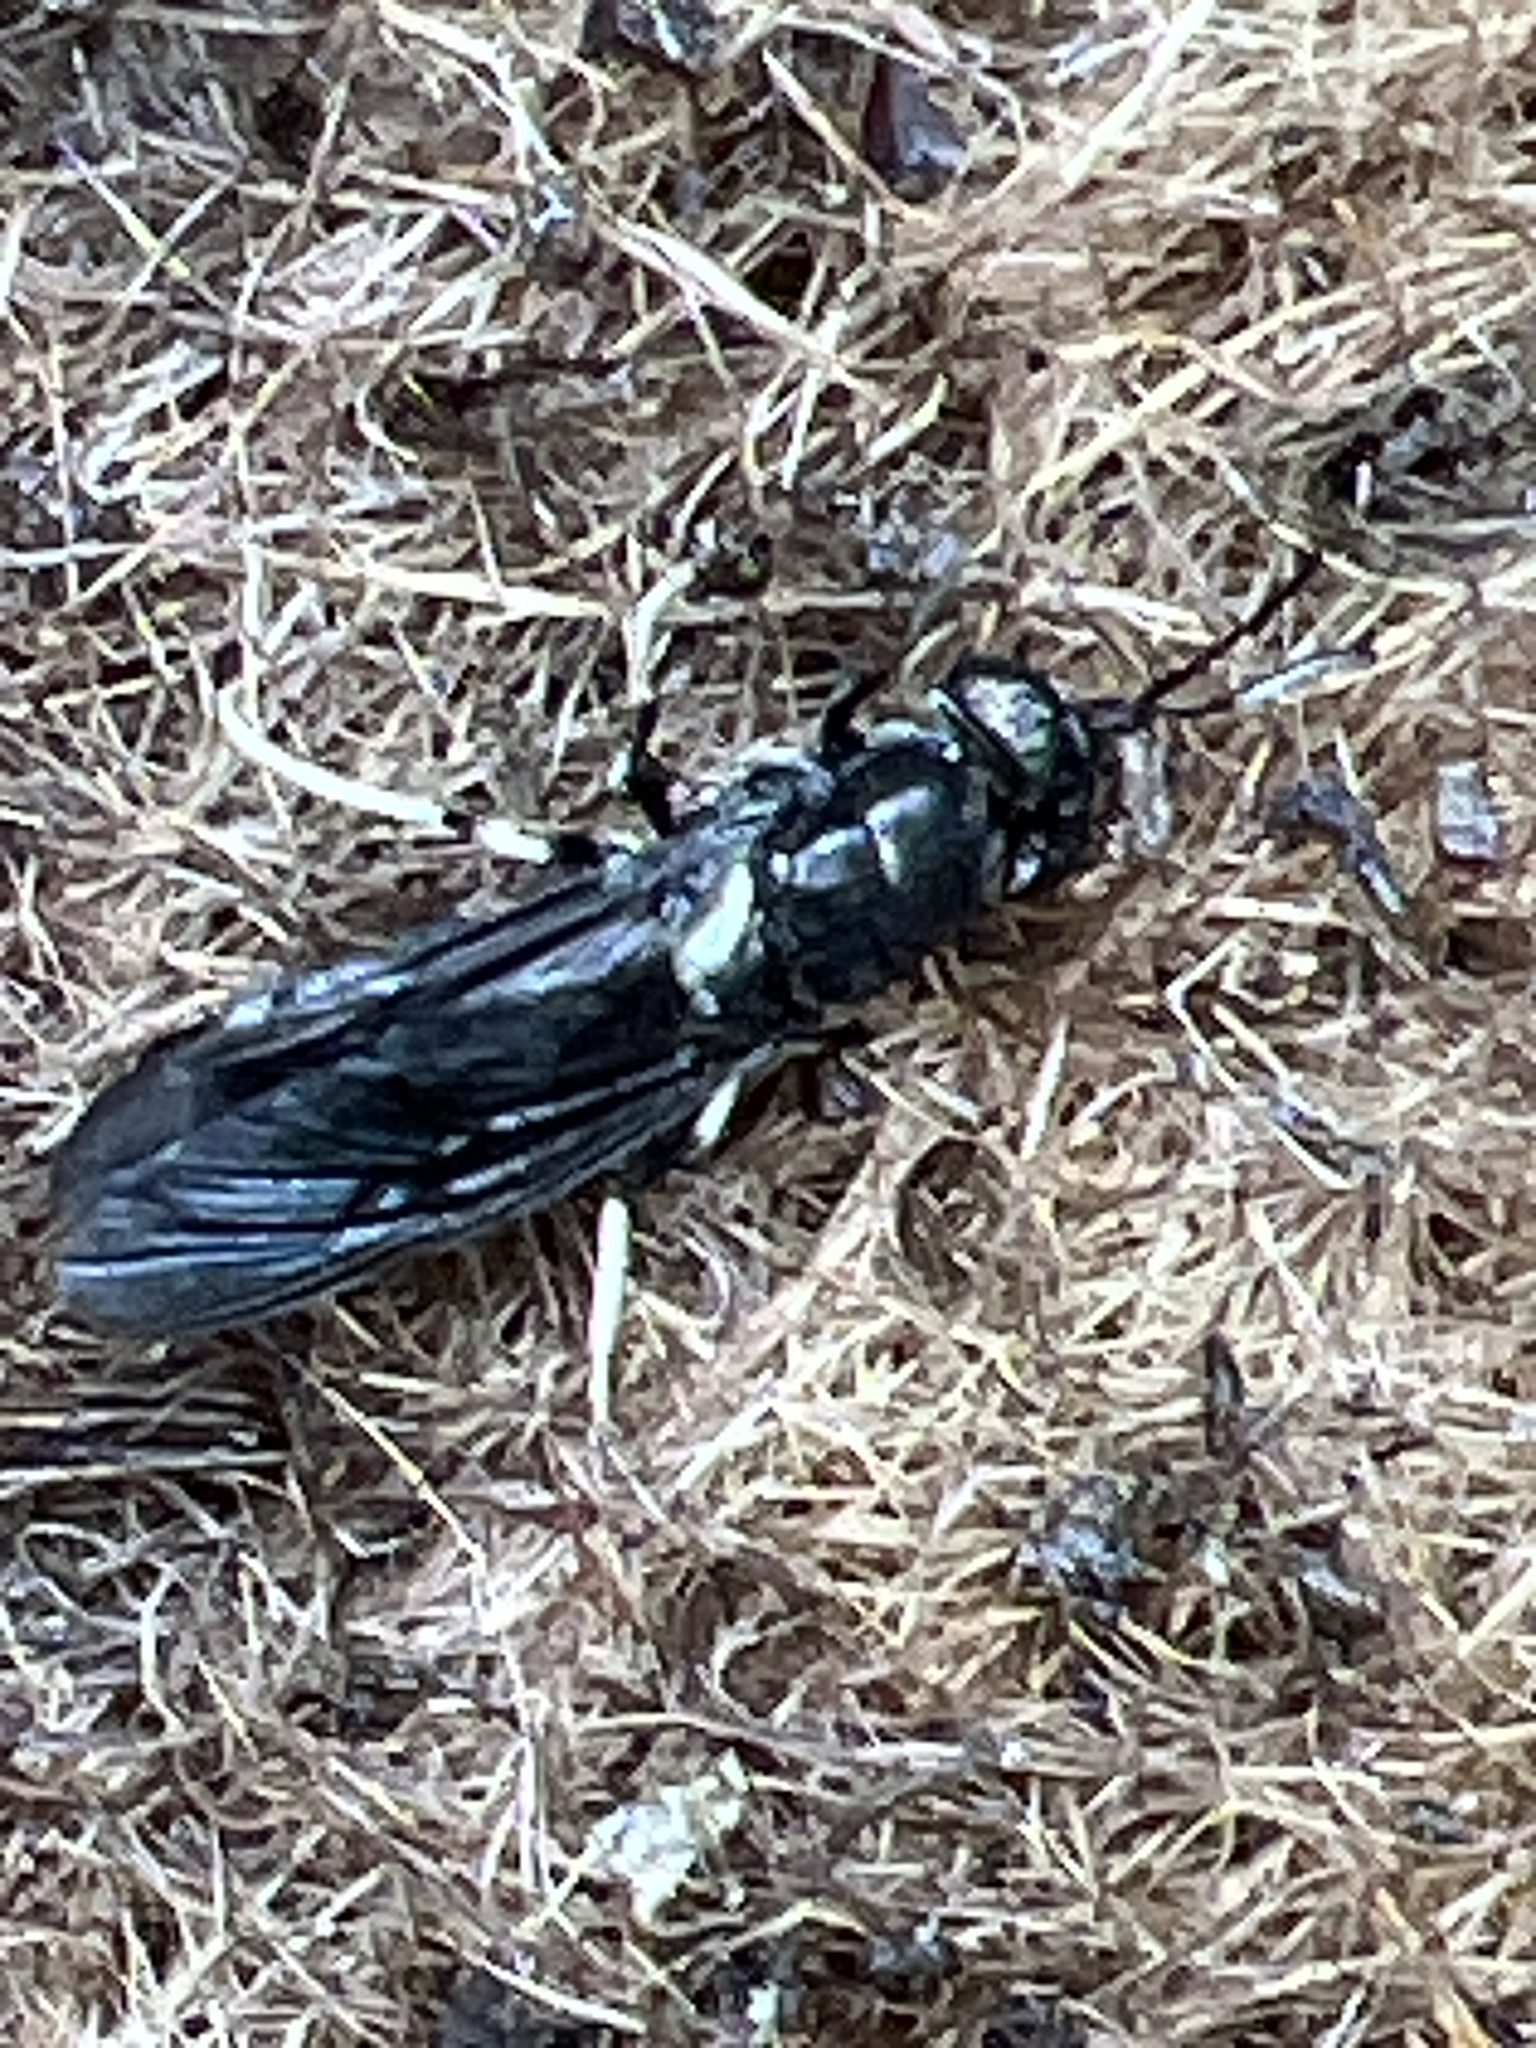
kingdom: Animalia
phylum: Arthropoda
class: Insecta
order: Diptera
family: Stratiomyidae
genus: Hermetia
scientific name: Hermetia illucens
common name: Black soldier fly
